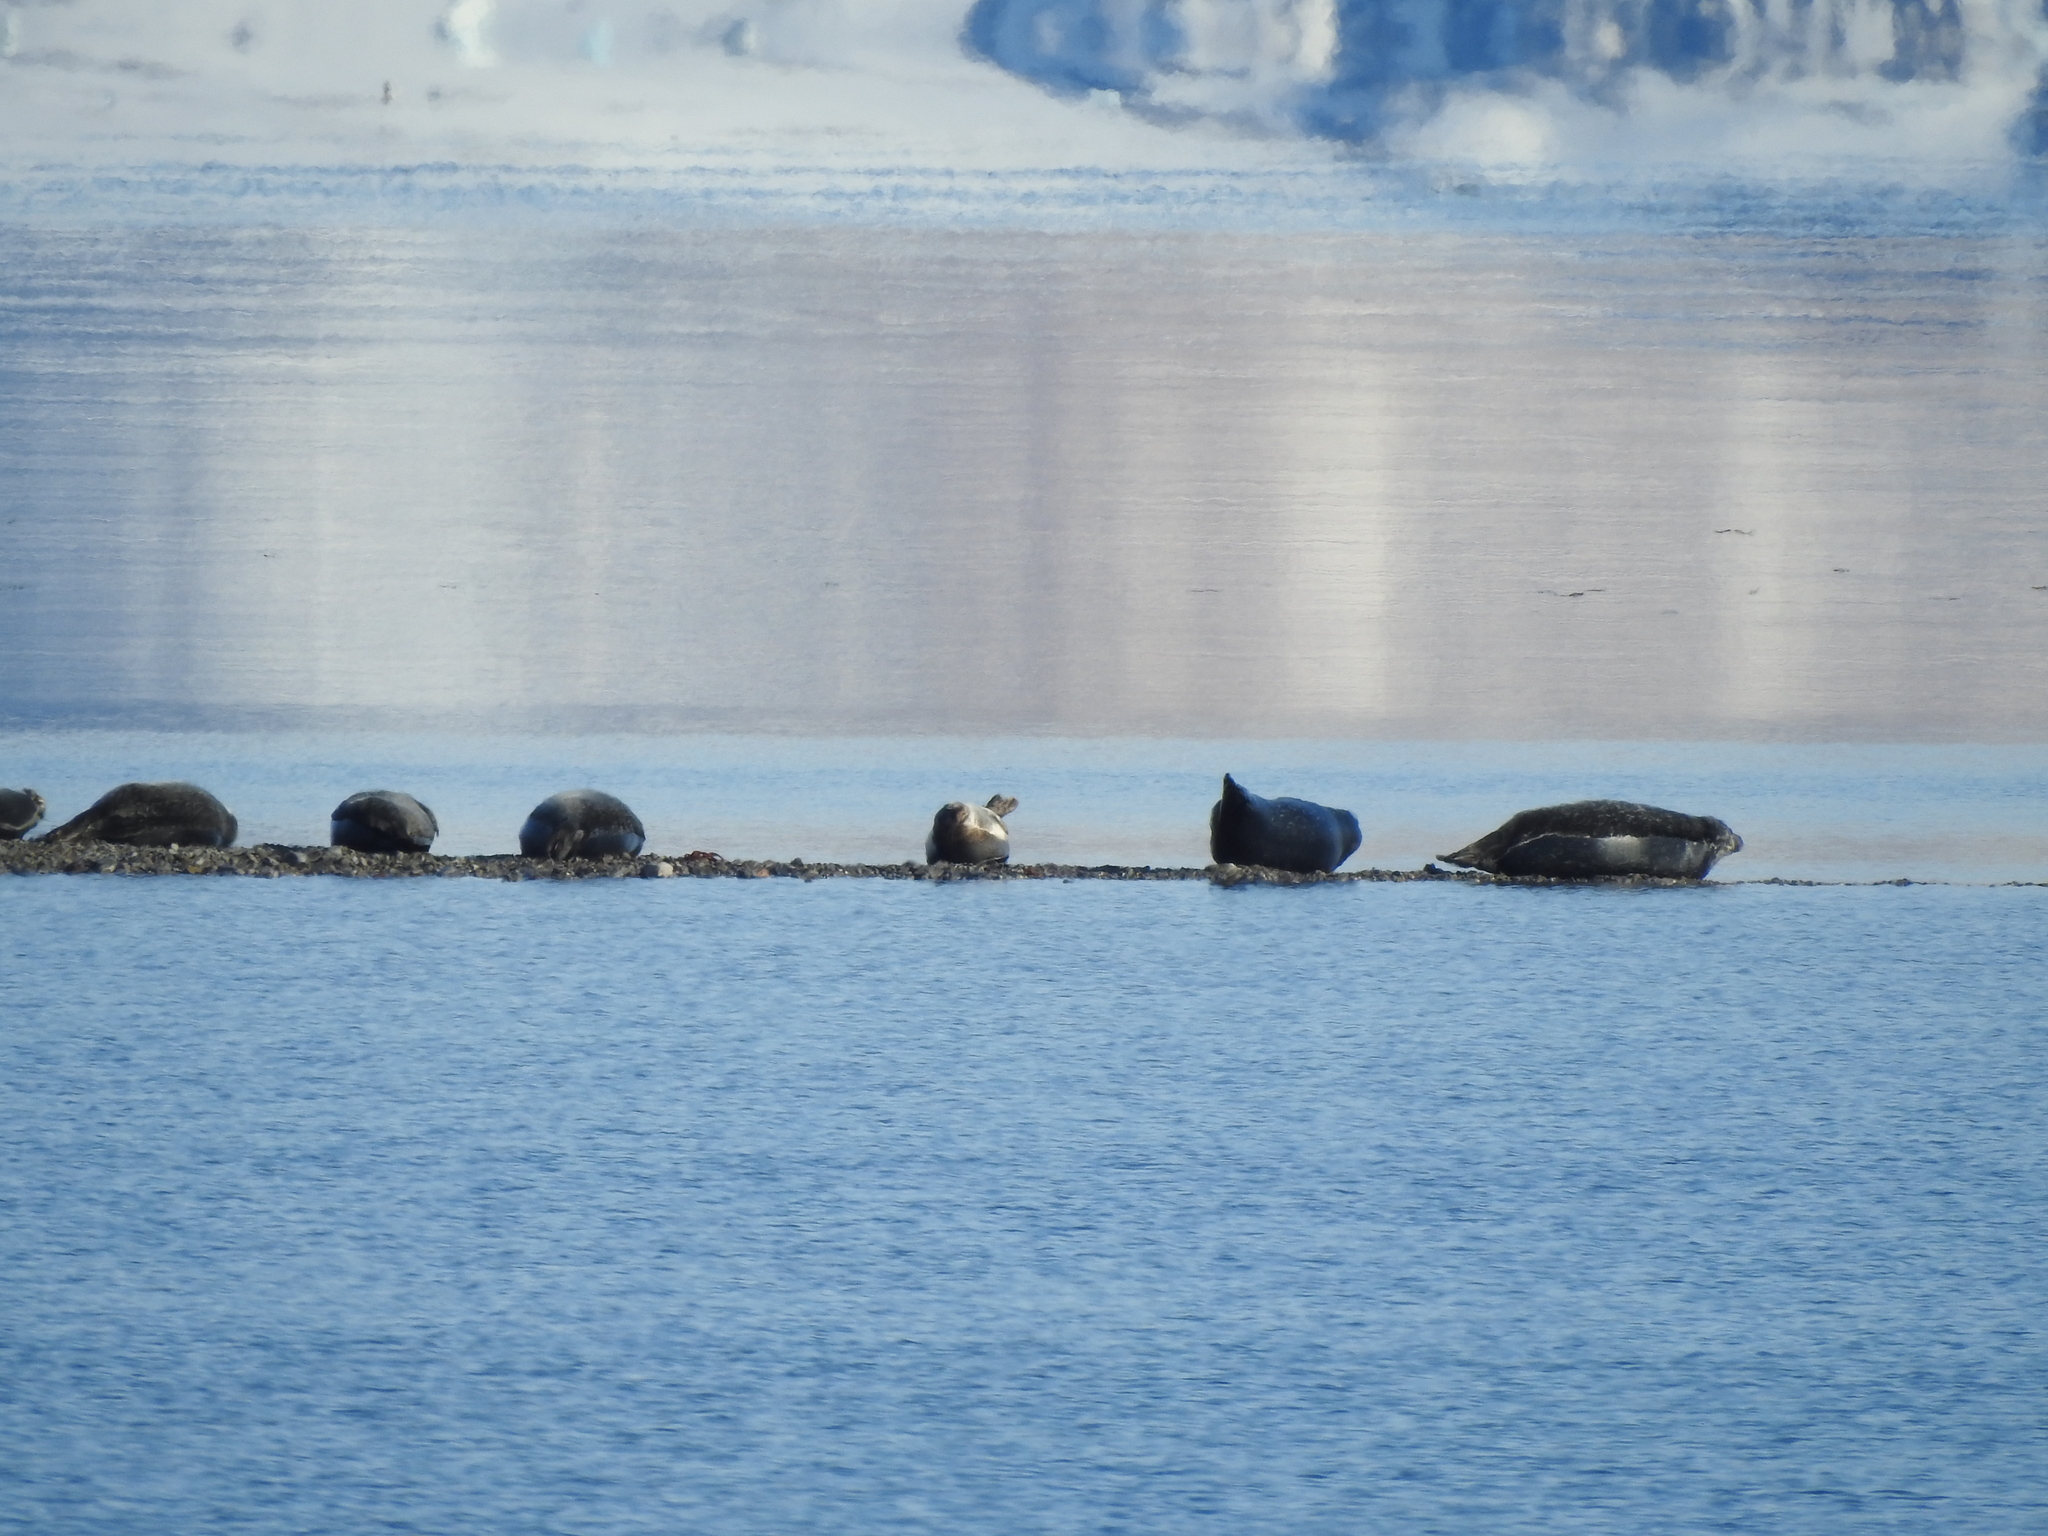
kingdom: Animalia
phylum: Chordata
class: Mammalia
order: Carnivora
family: Phocidae
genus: Phoca
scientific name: Phoca vitulina
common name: Harbor seal
